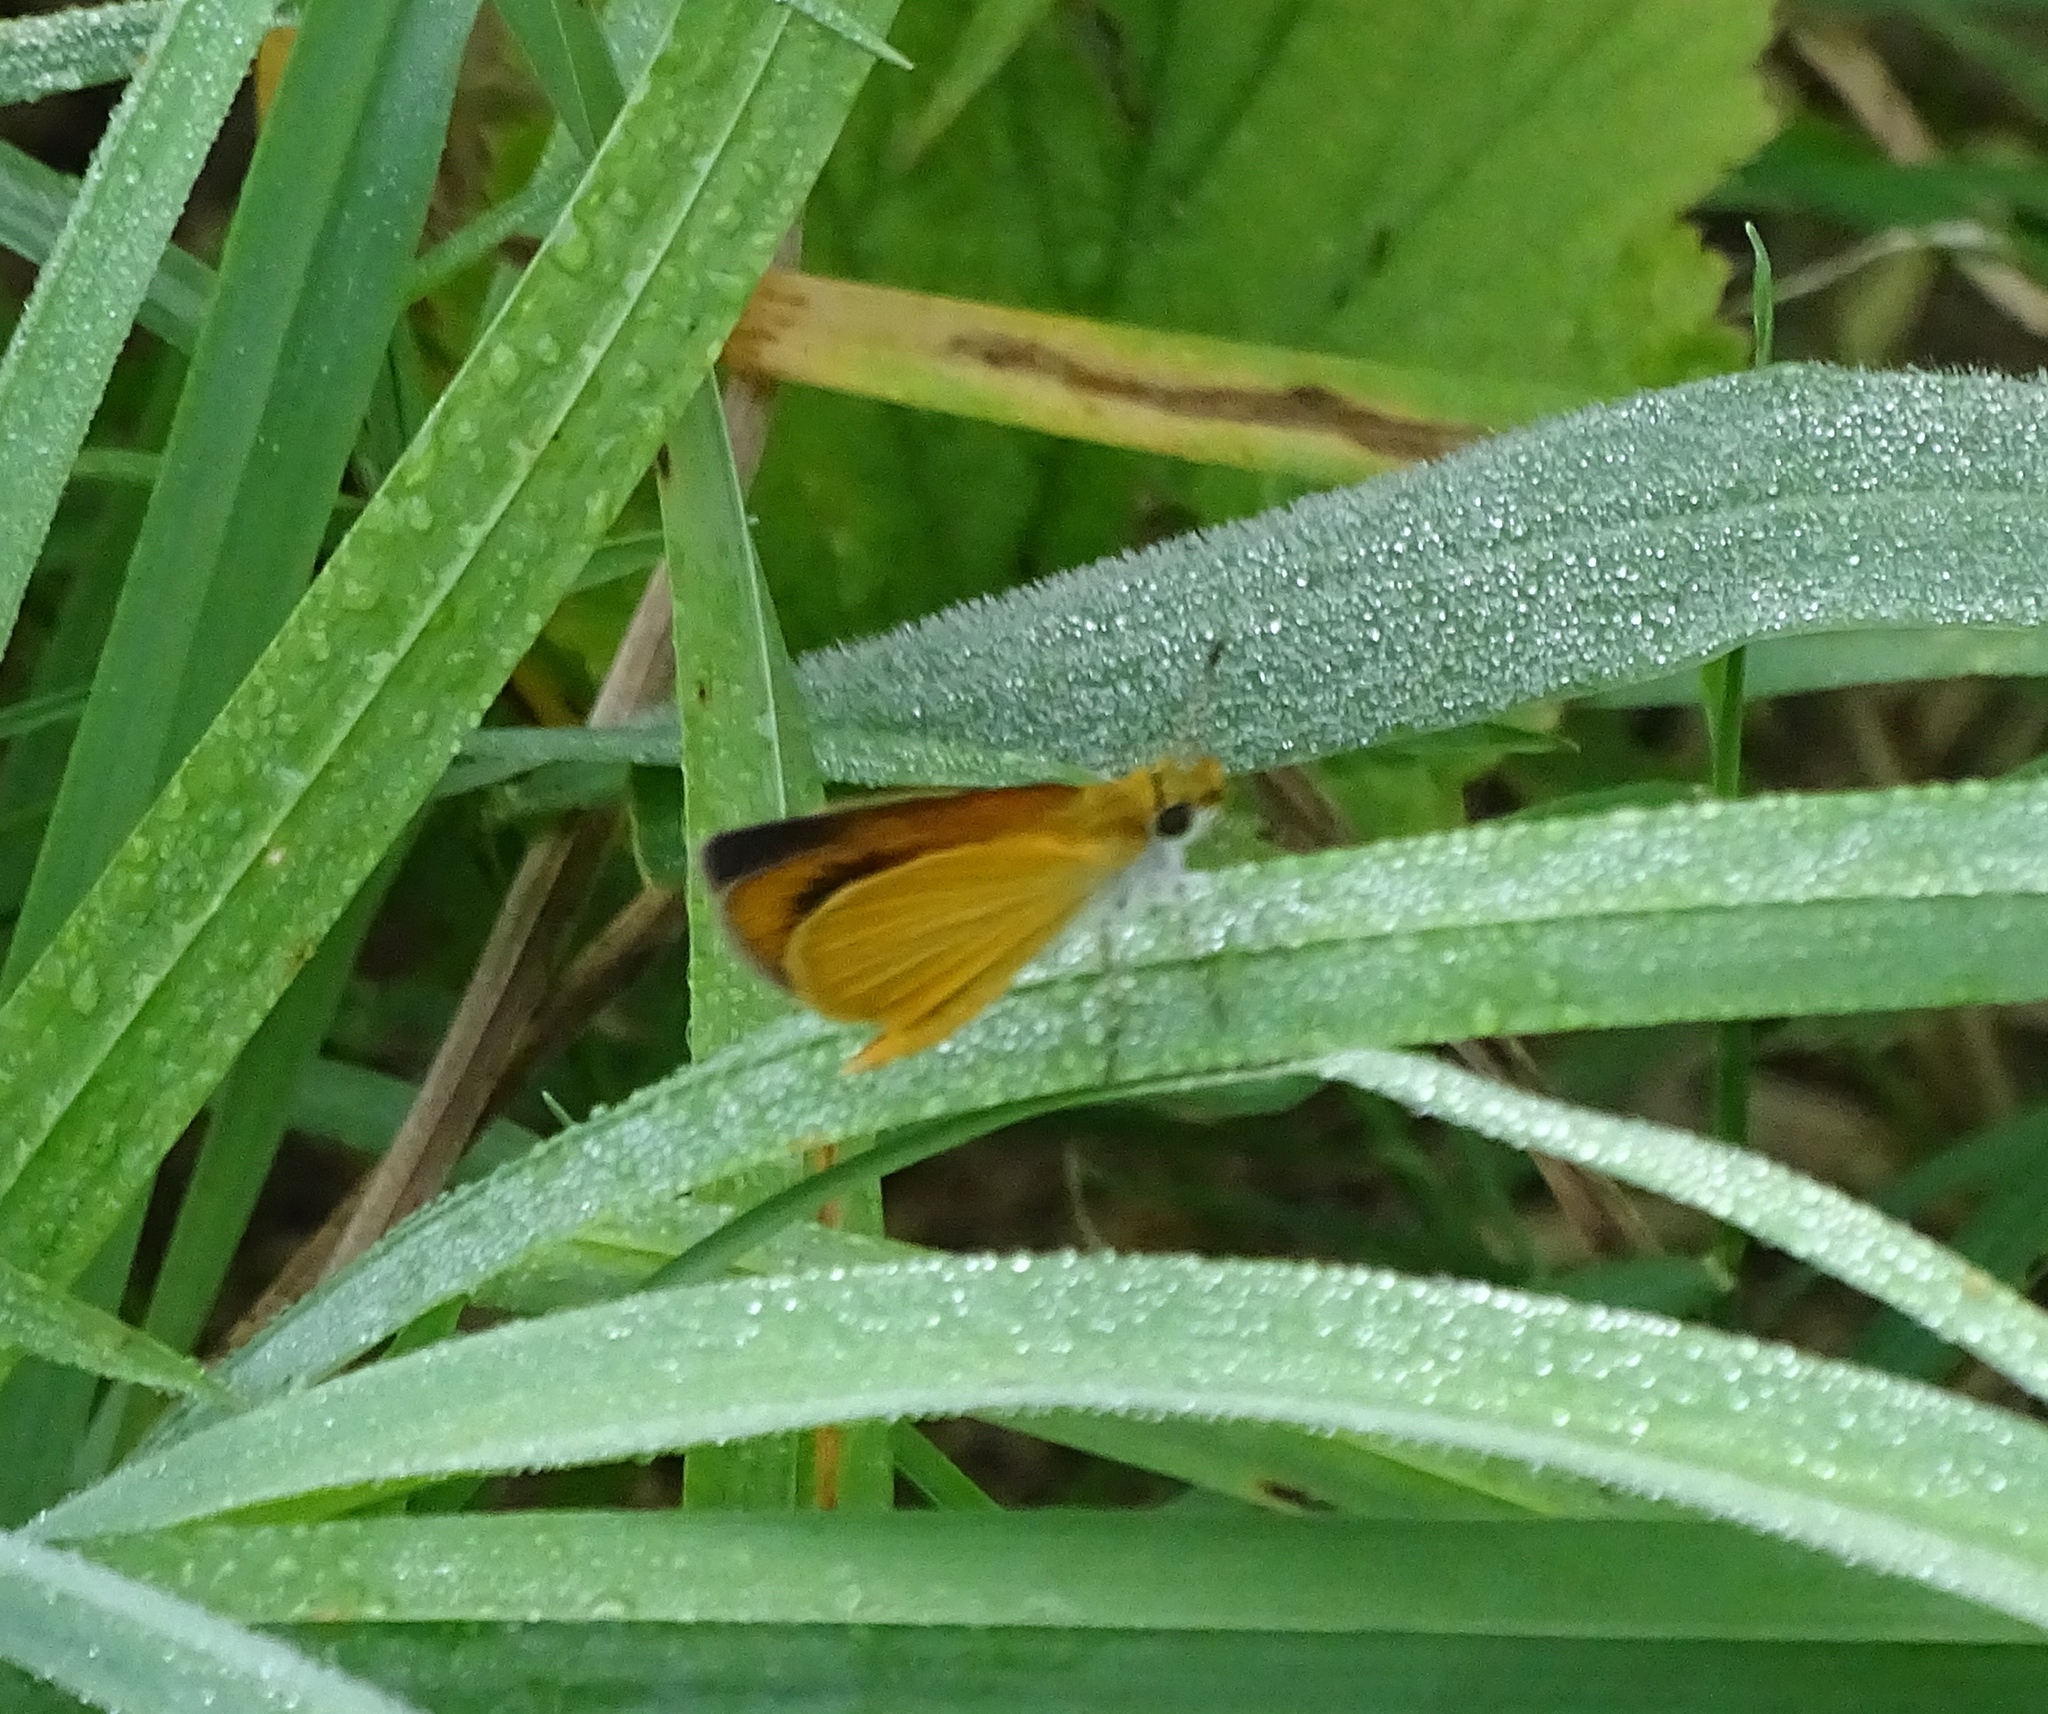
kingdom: Animalia
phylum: Arthropoda
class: Insecta
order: Lepidoptera
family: Hesperiidae
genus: Ancyloxypha
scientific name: Ancyloxypha numitor
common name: Least skipper
